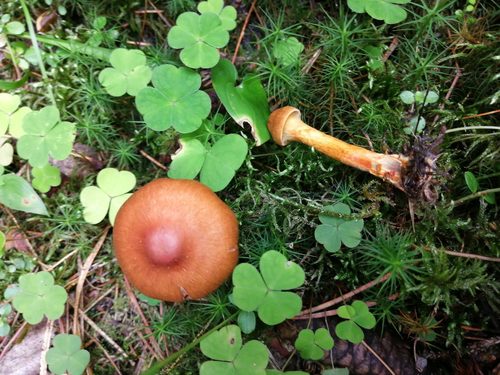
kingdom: Fungi
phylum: Basidiomycota
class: Agaricomycetes
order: Agaricales
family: Cortinariaceae
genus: Cortinarius
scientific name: Cortinarius
